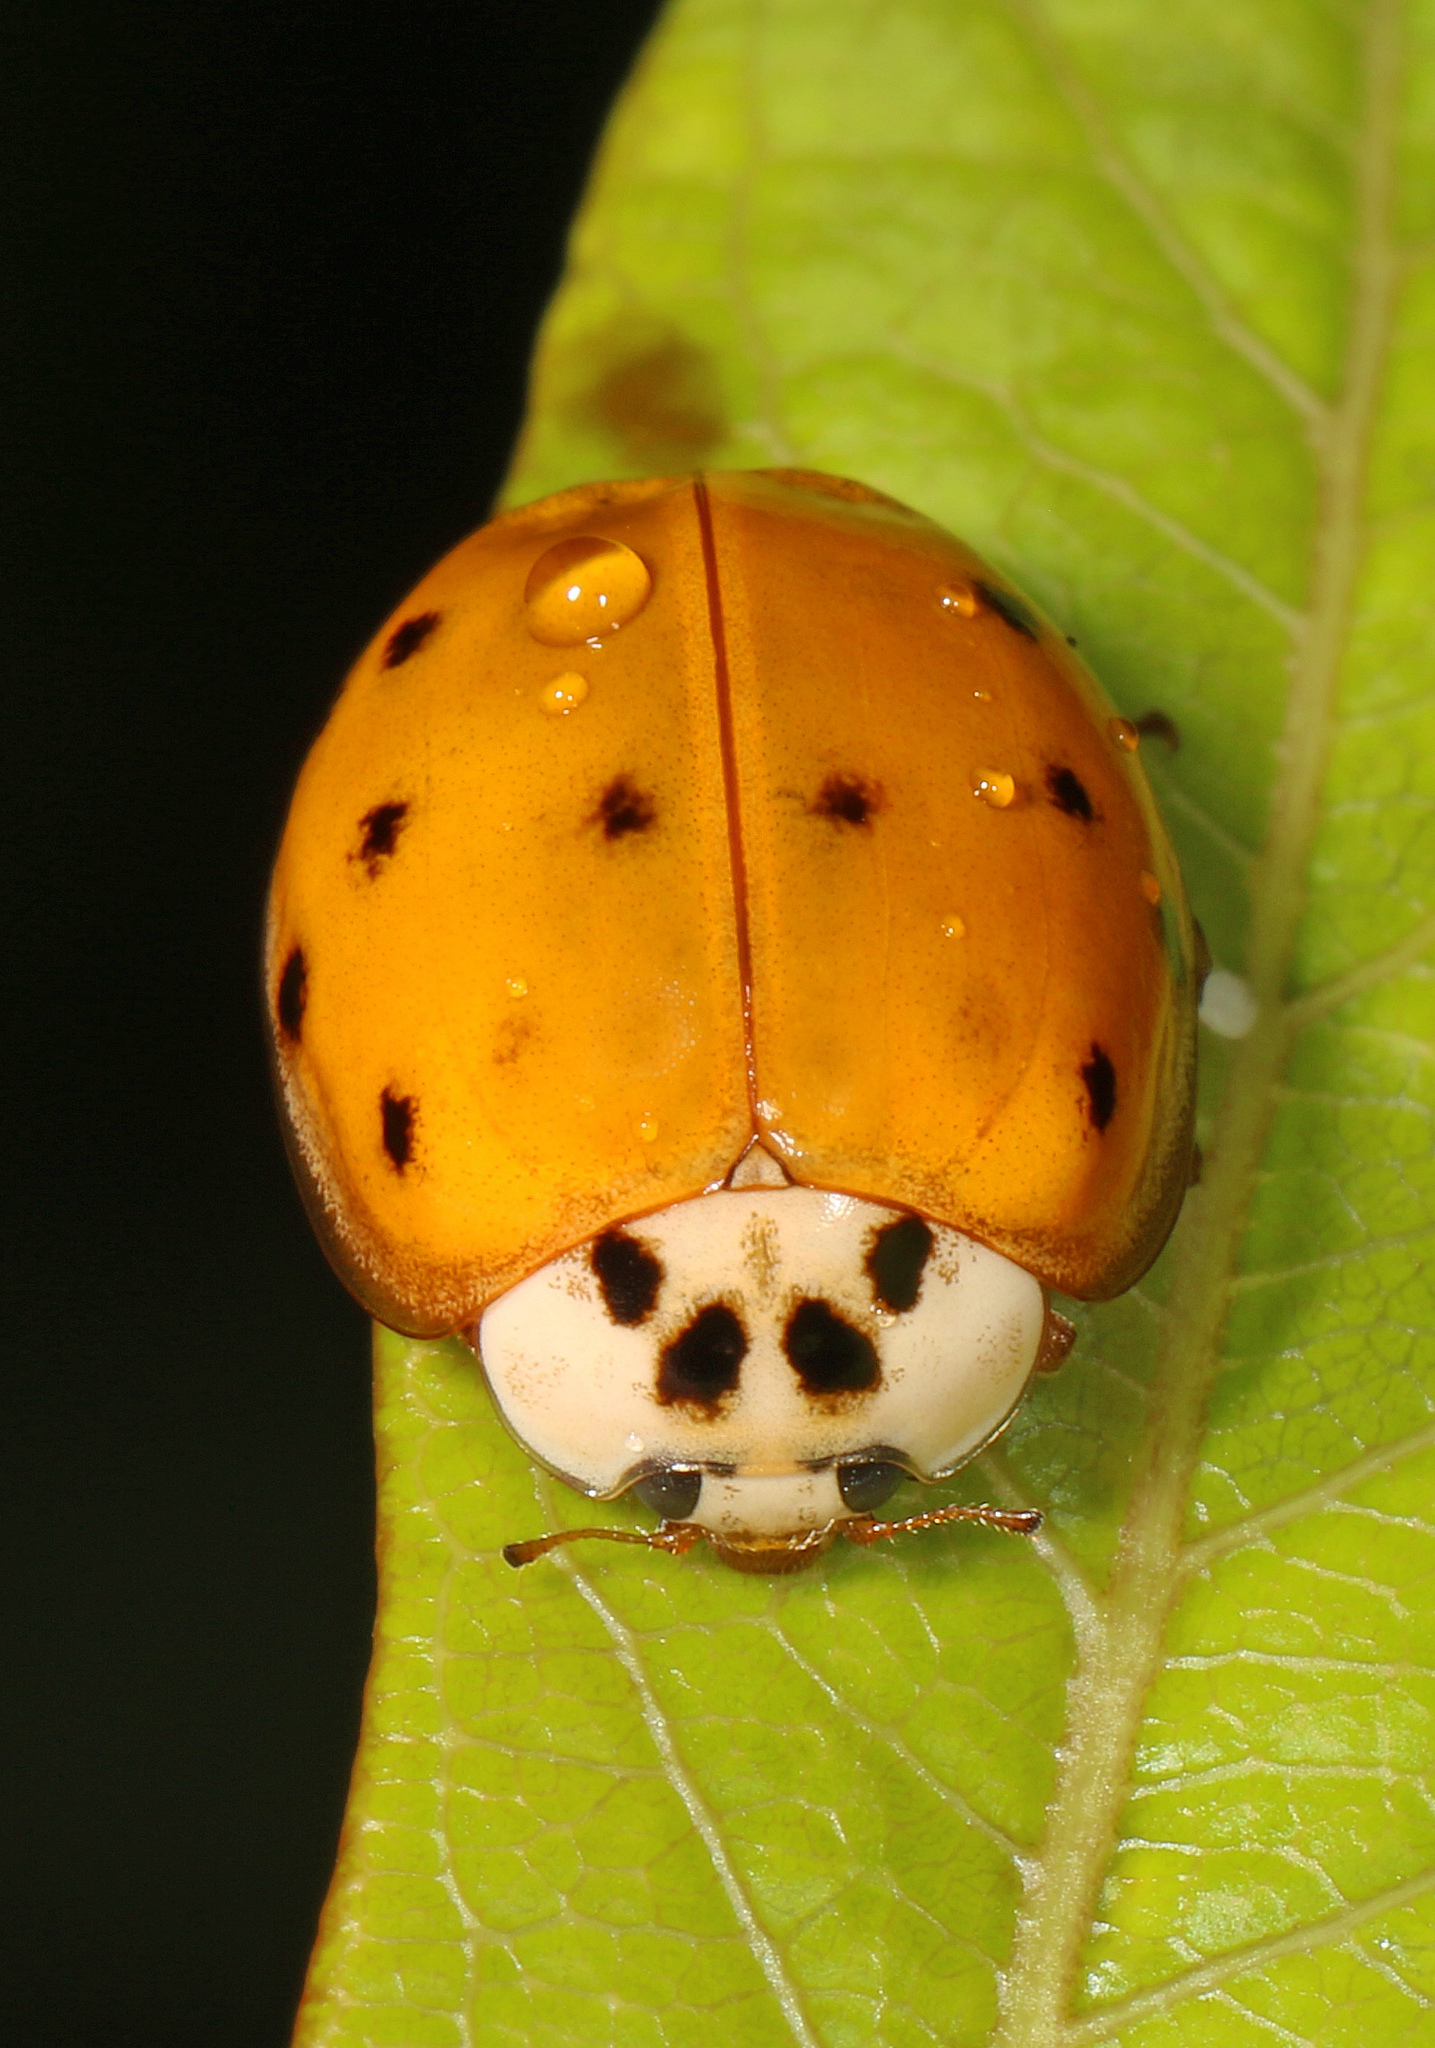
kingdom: Animalia
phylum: Arthropoda
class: Insecta
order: Coleoptera
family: Coccinellidae
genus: Harmonia
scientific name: Harmonia axyridis
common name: Harlequin ladybird
